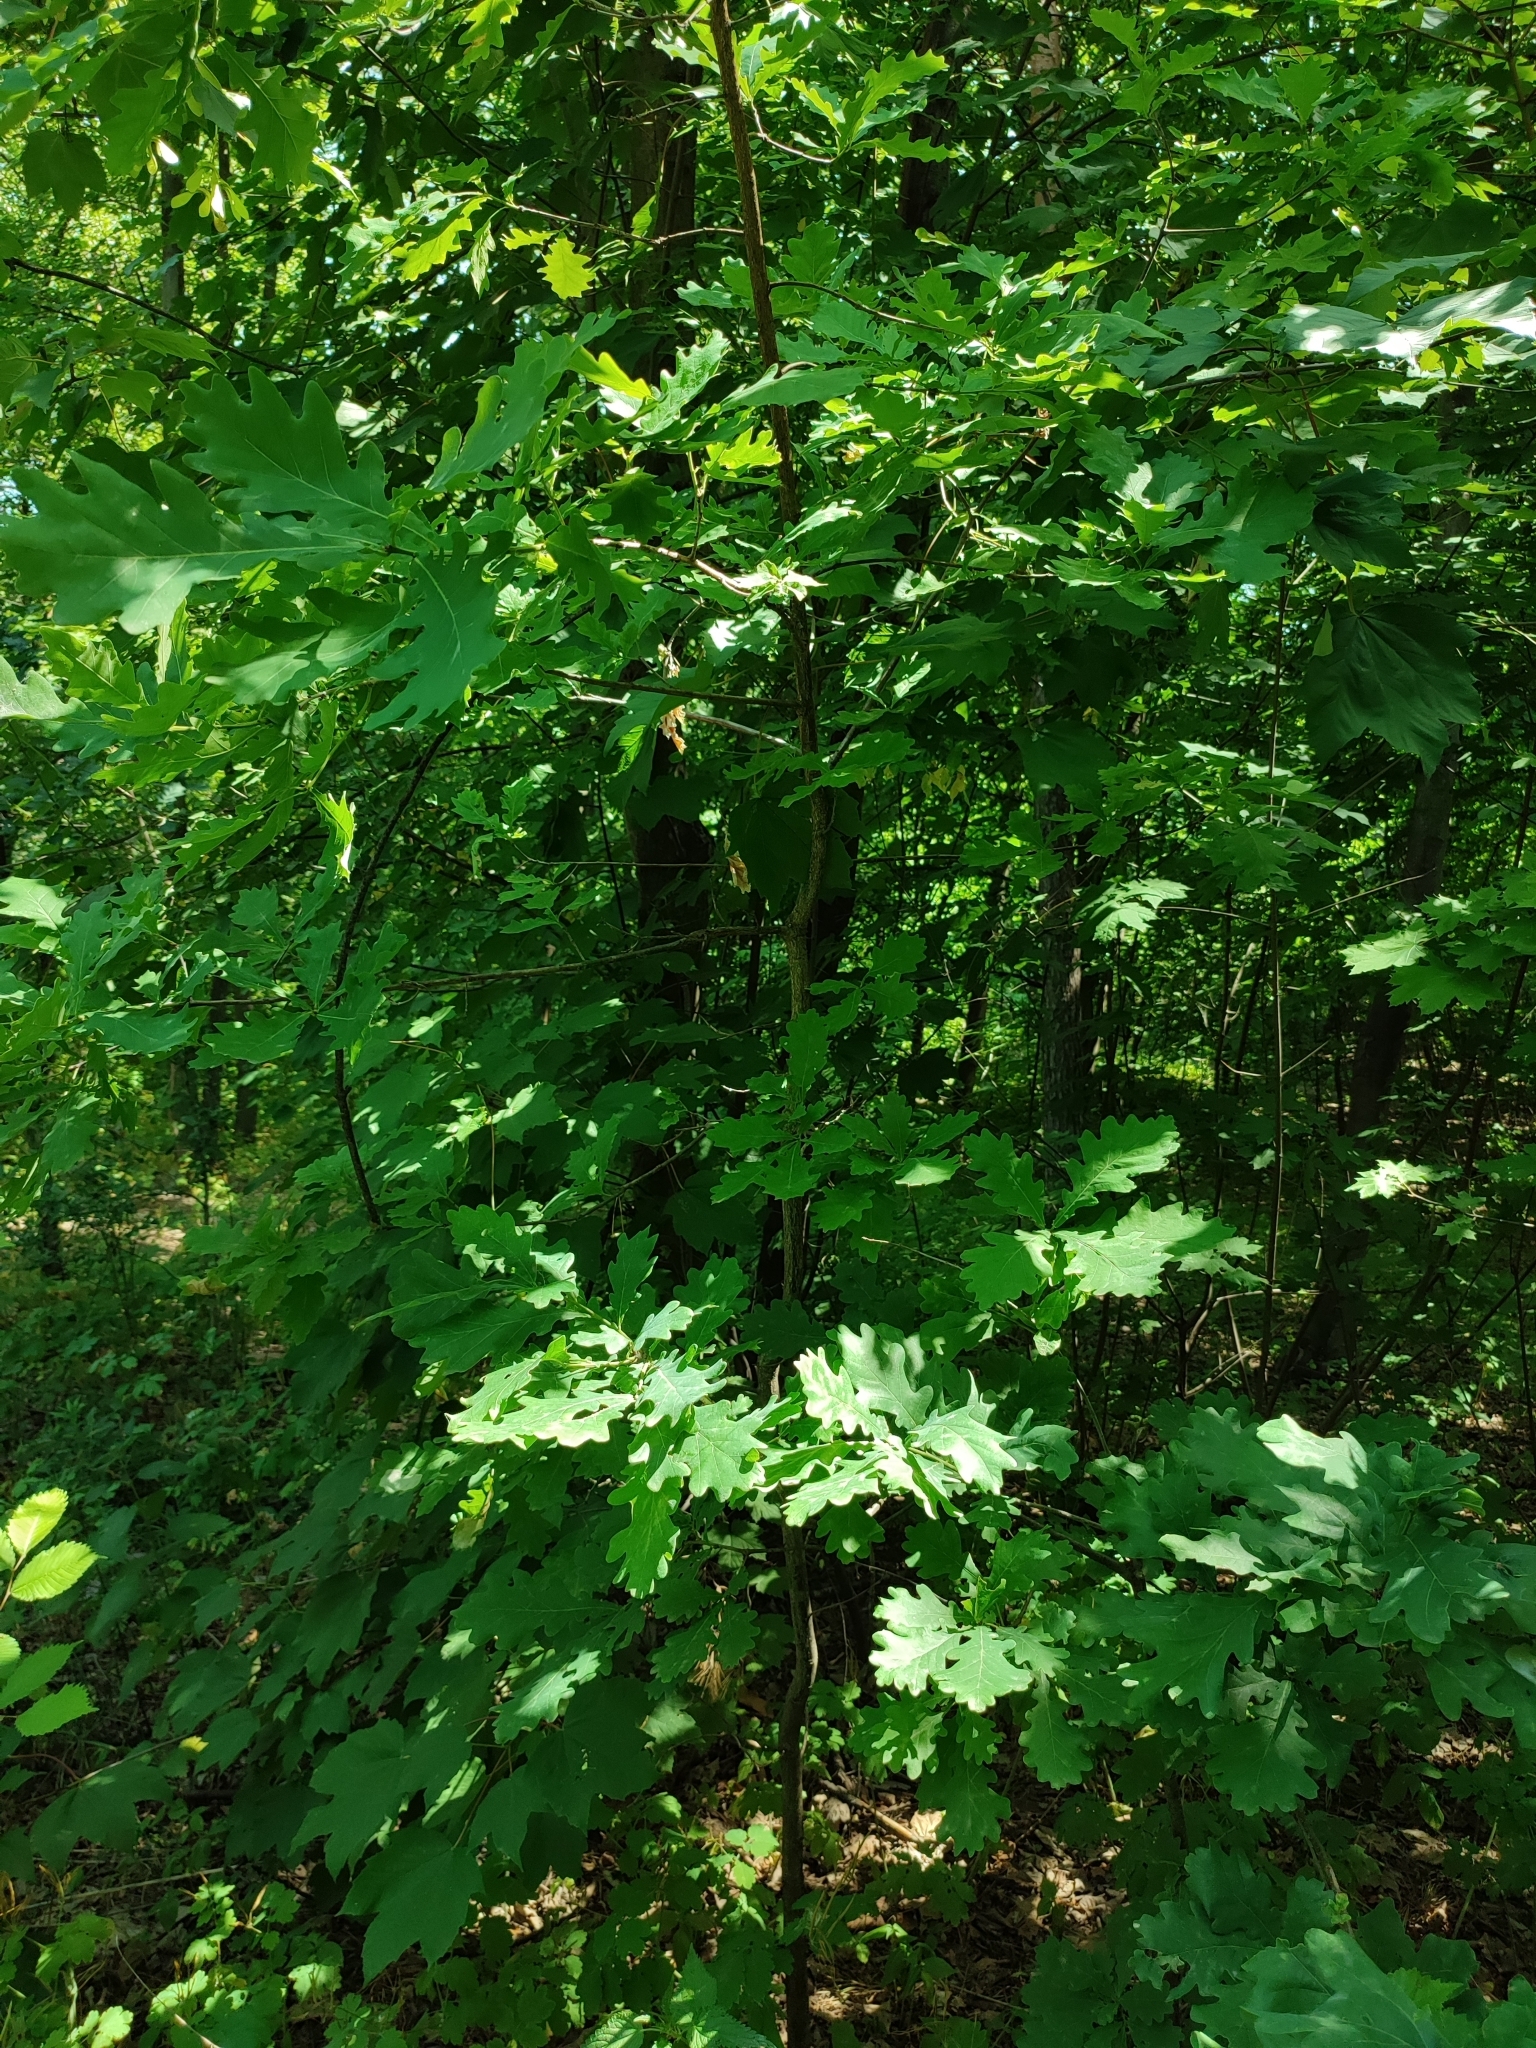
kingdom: Plantae
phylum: Tracheophyta
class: Magnoliopsida
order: Fagales
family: Fagaceae
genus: Quercus
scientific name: Quercus robur
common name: Pedunculate oak
